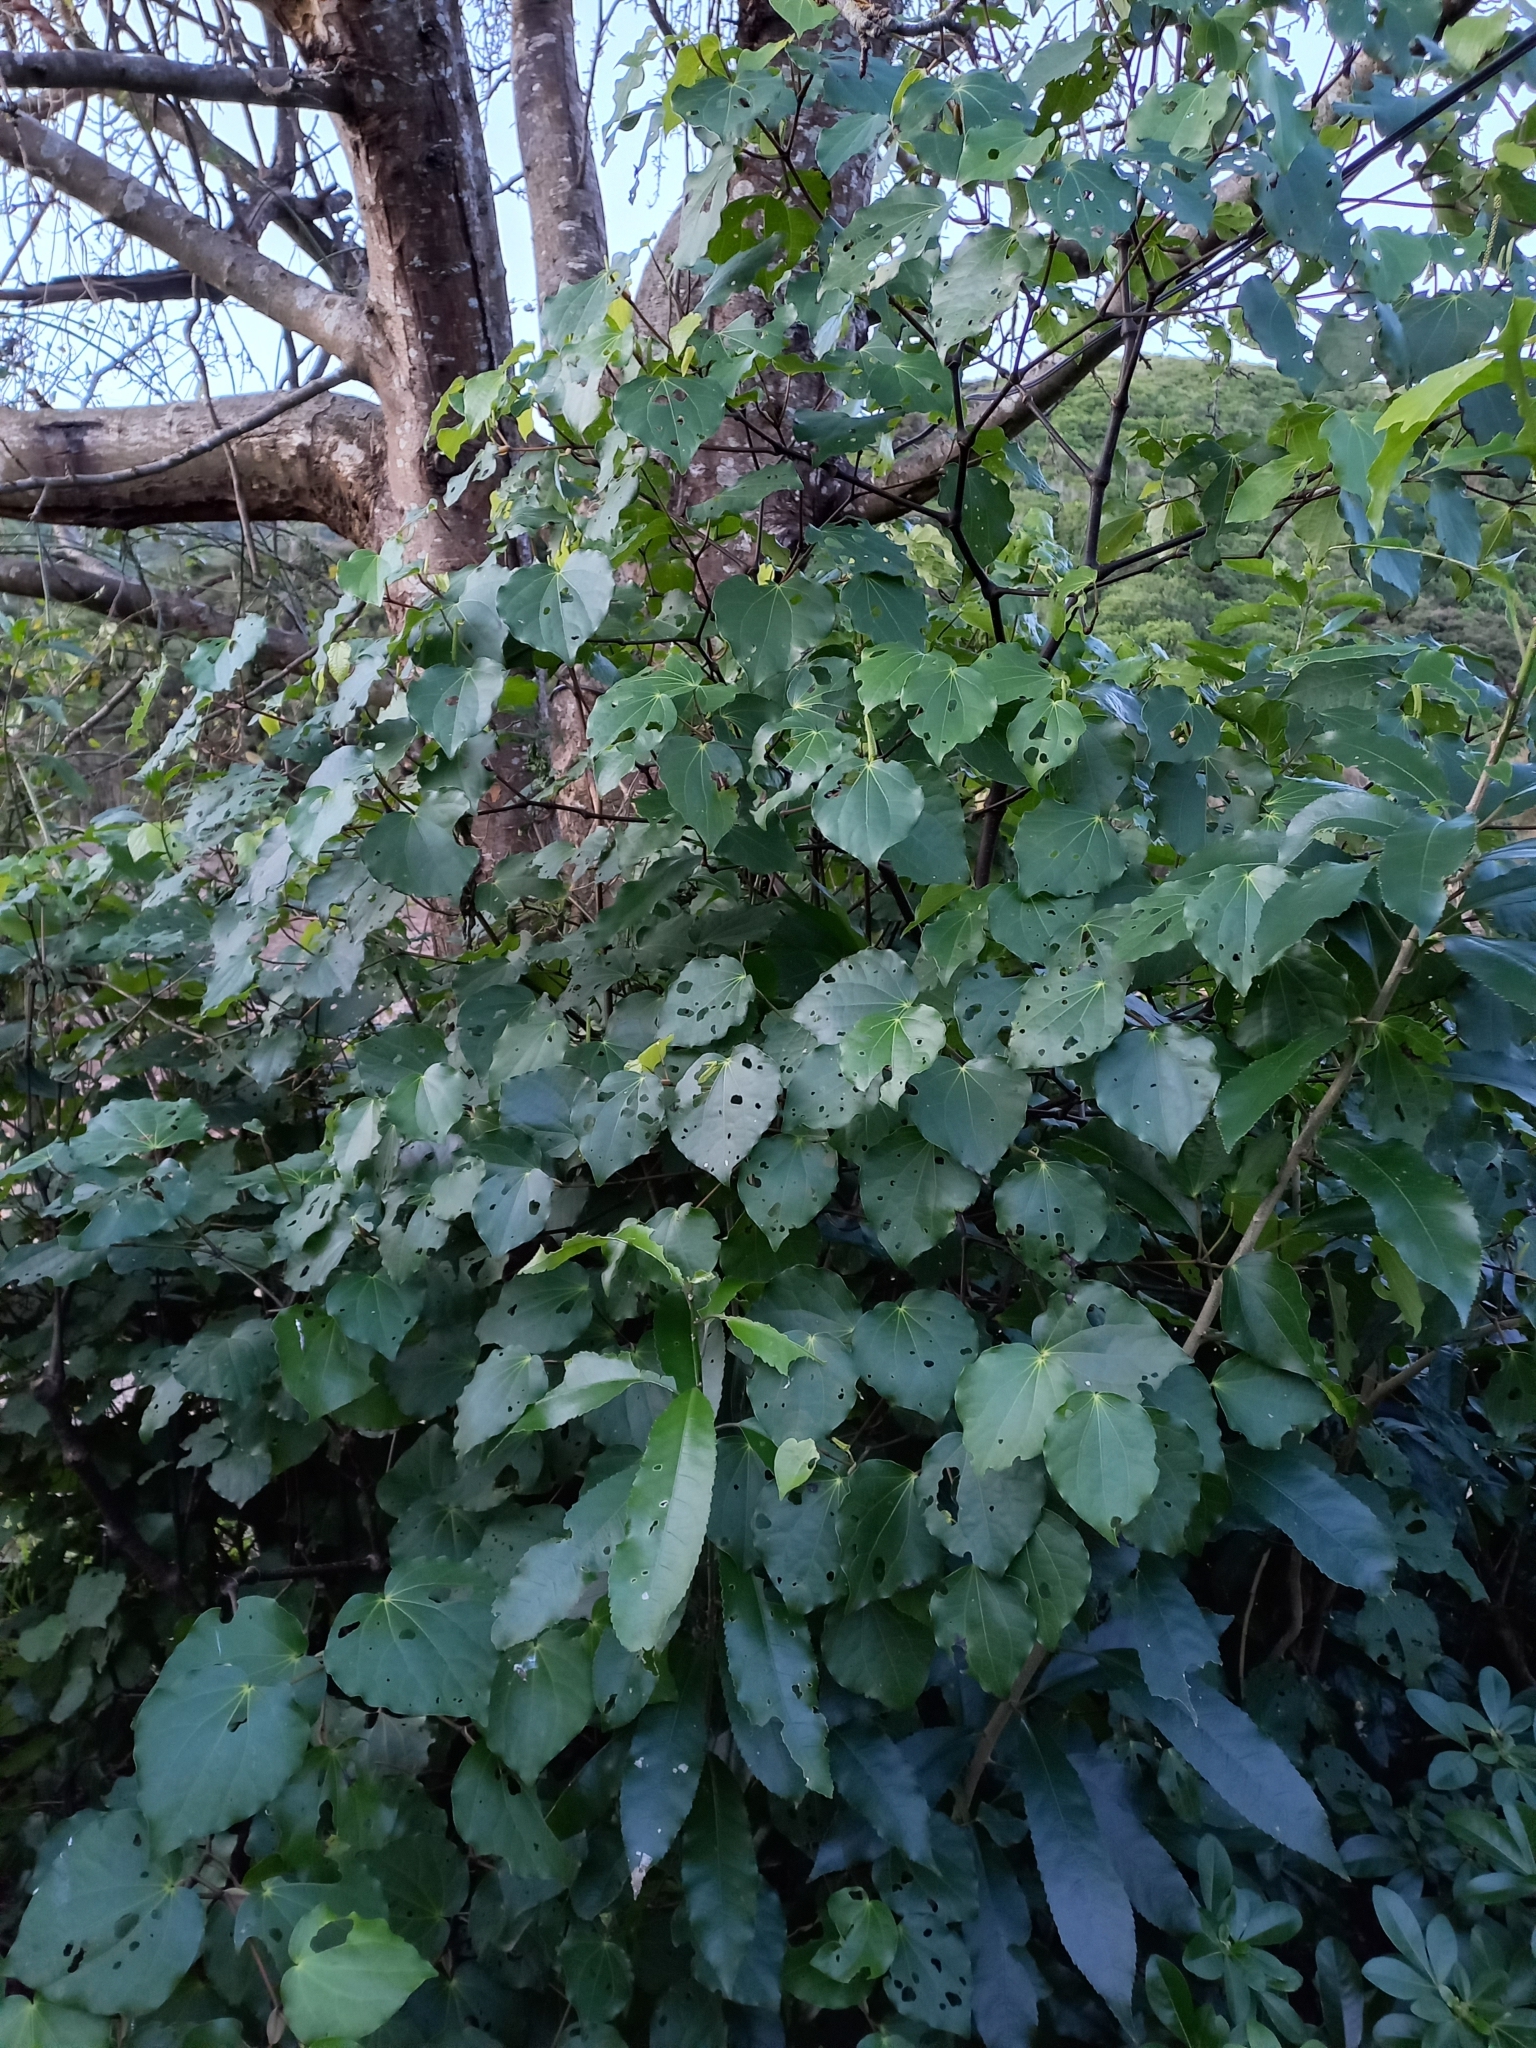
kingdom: Plantae
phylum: Tracheophyta
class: Magnoliopsida
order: Piperales
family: Piperaceae
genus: Macropiper
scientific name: Macropiper excelsum
